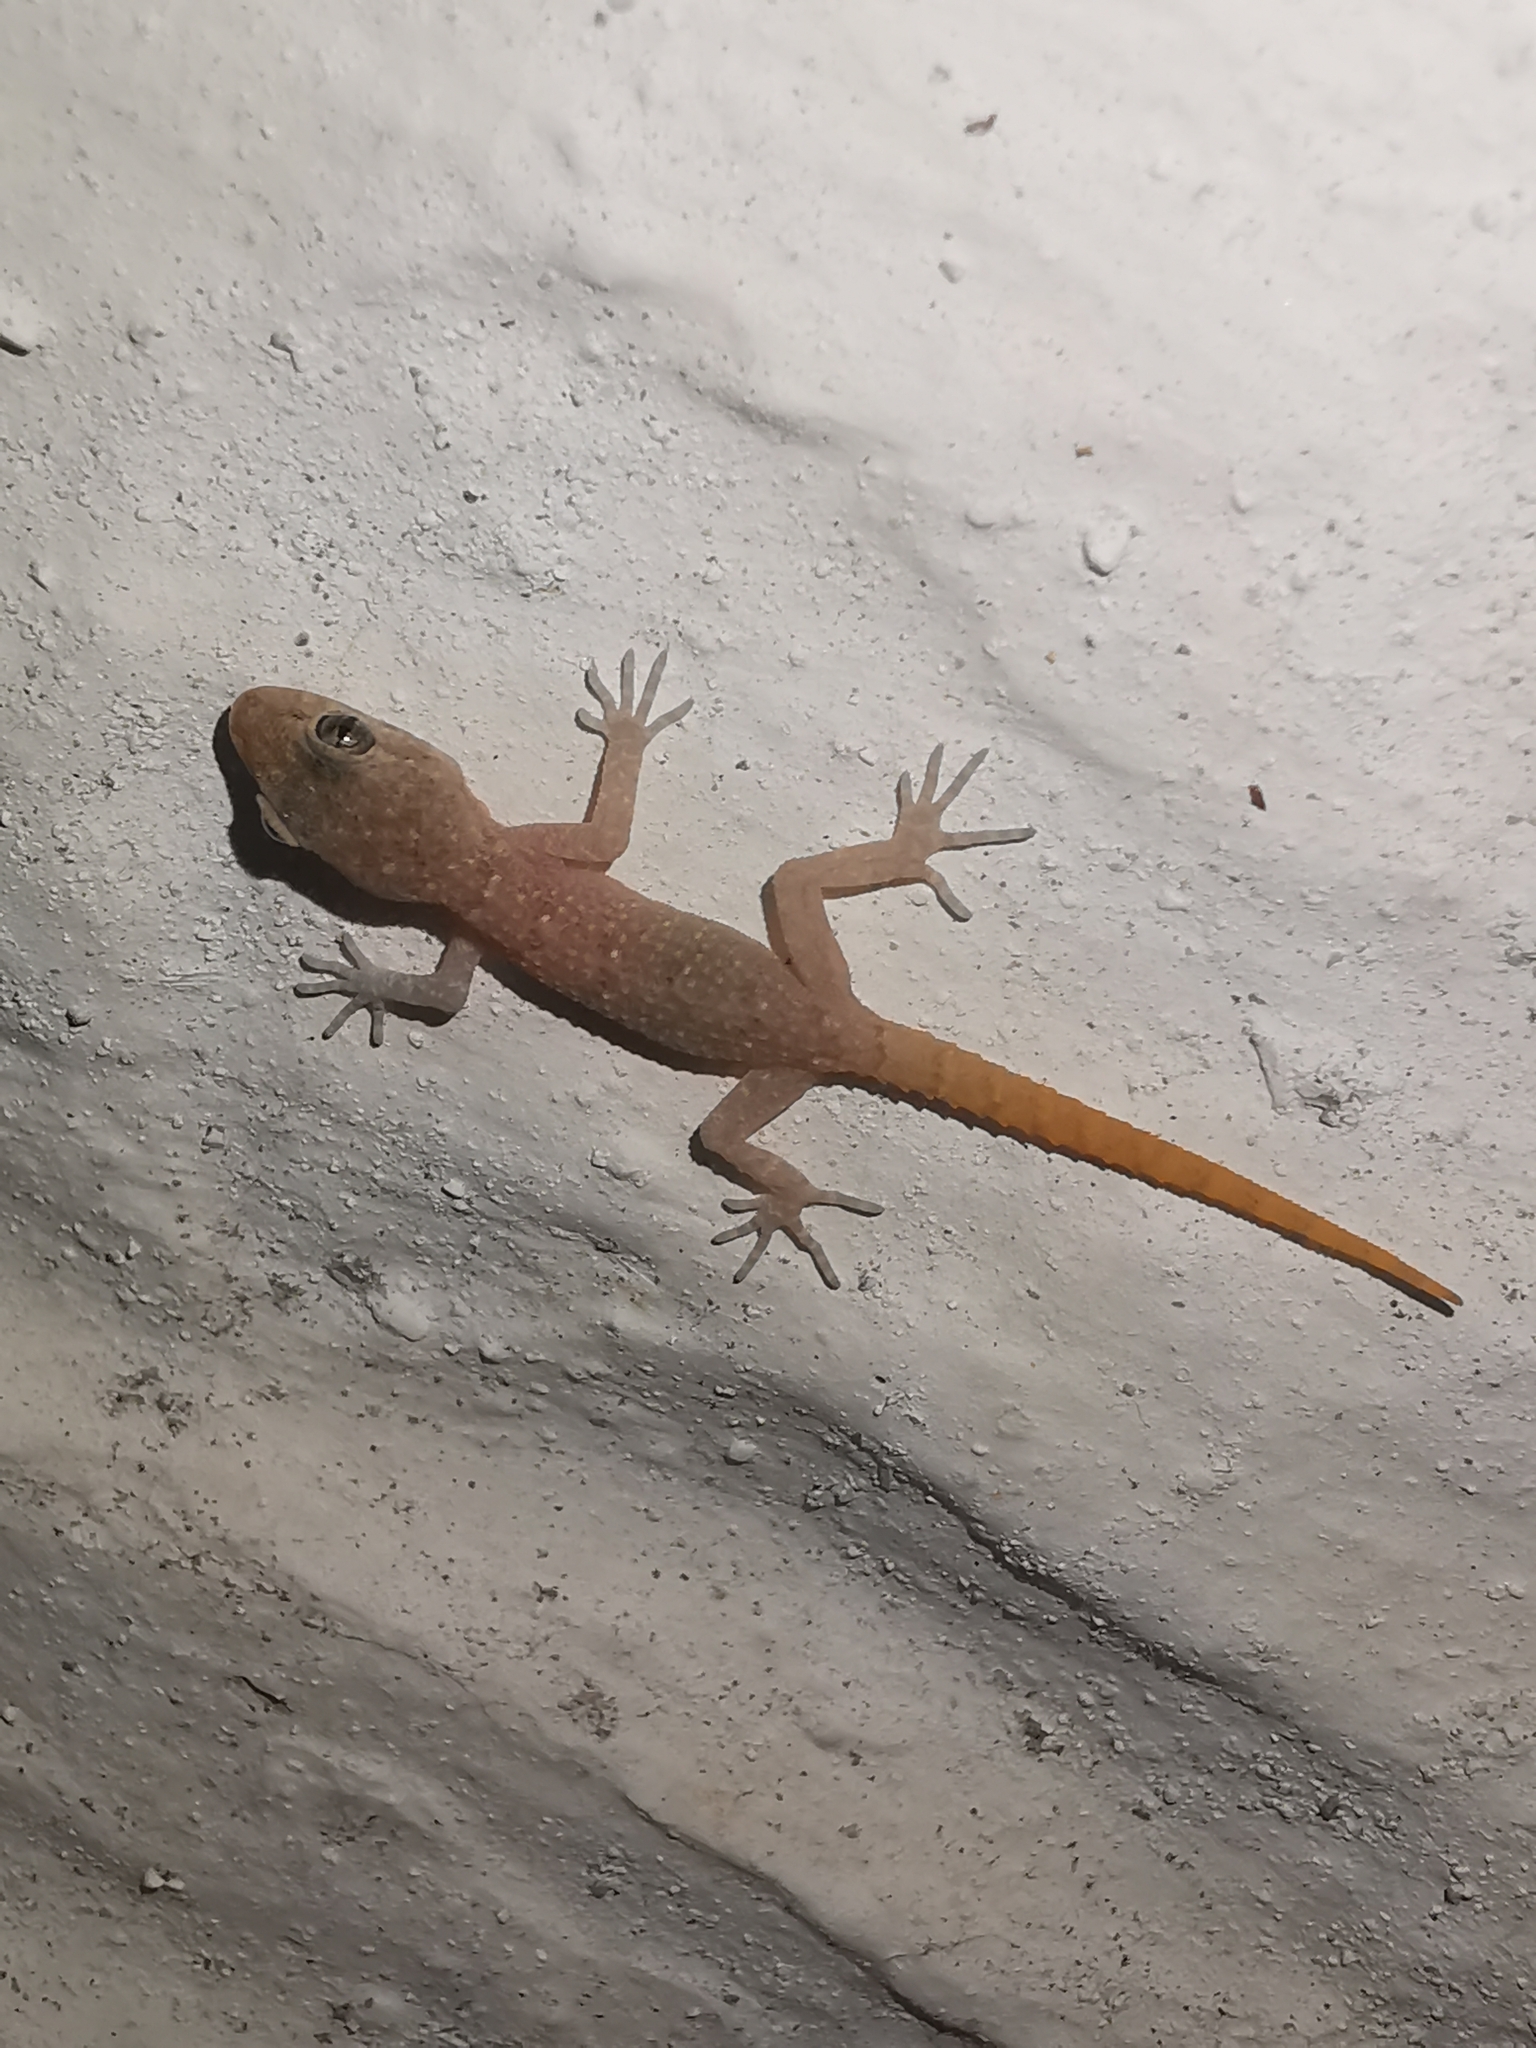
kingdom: Animalia
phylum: Chordata
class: Squamata
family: Gekkonidae
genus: Mediodactylus
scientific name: Mediodactylus kotschyi
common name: Kotschy's gecko
